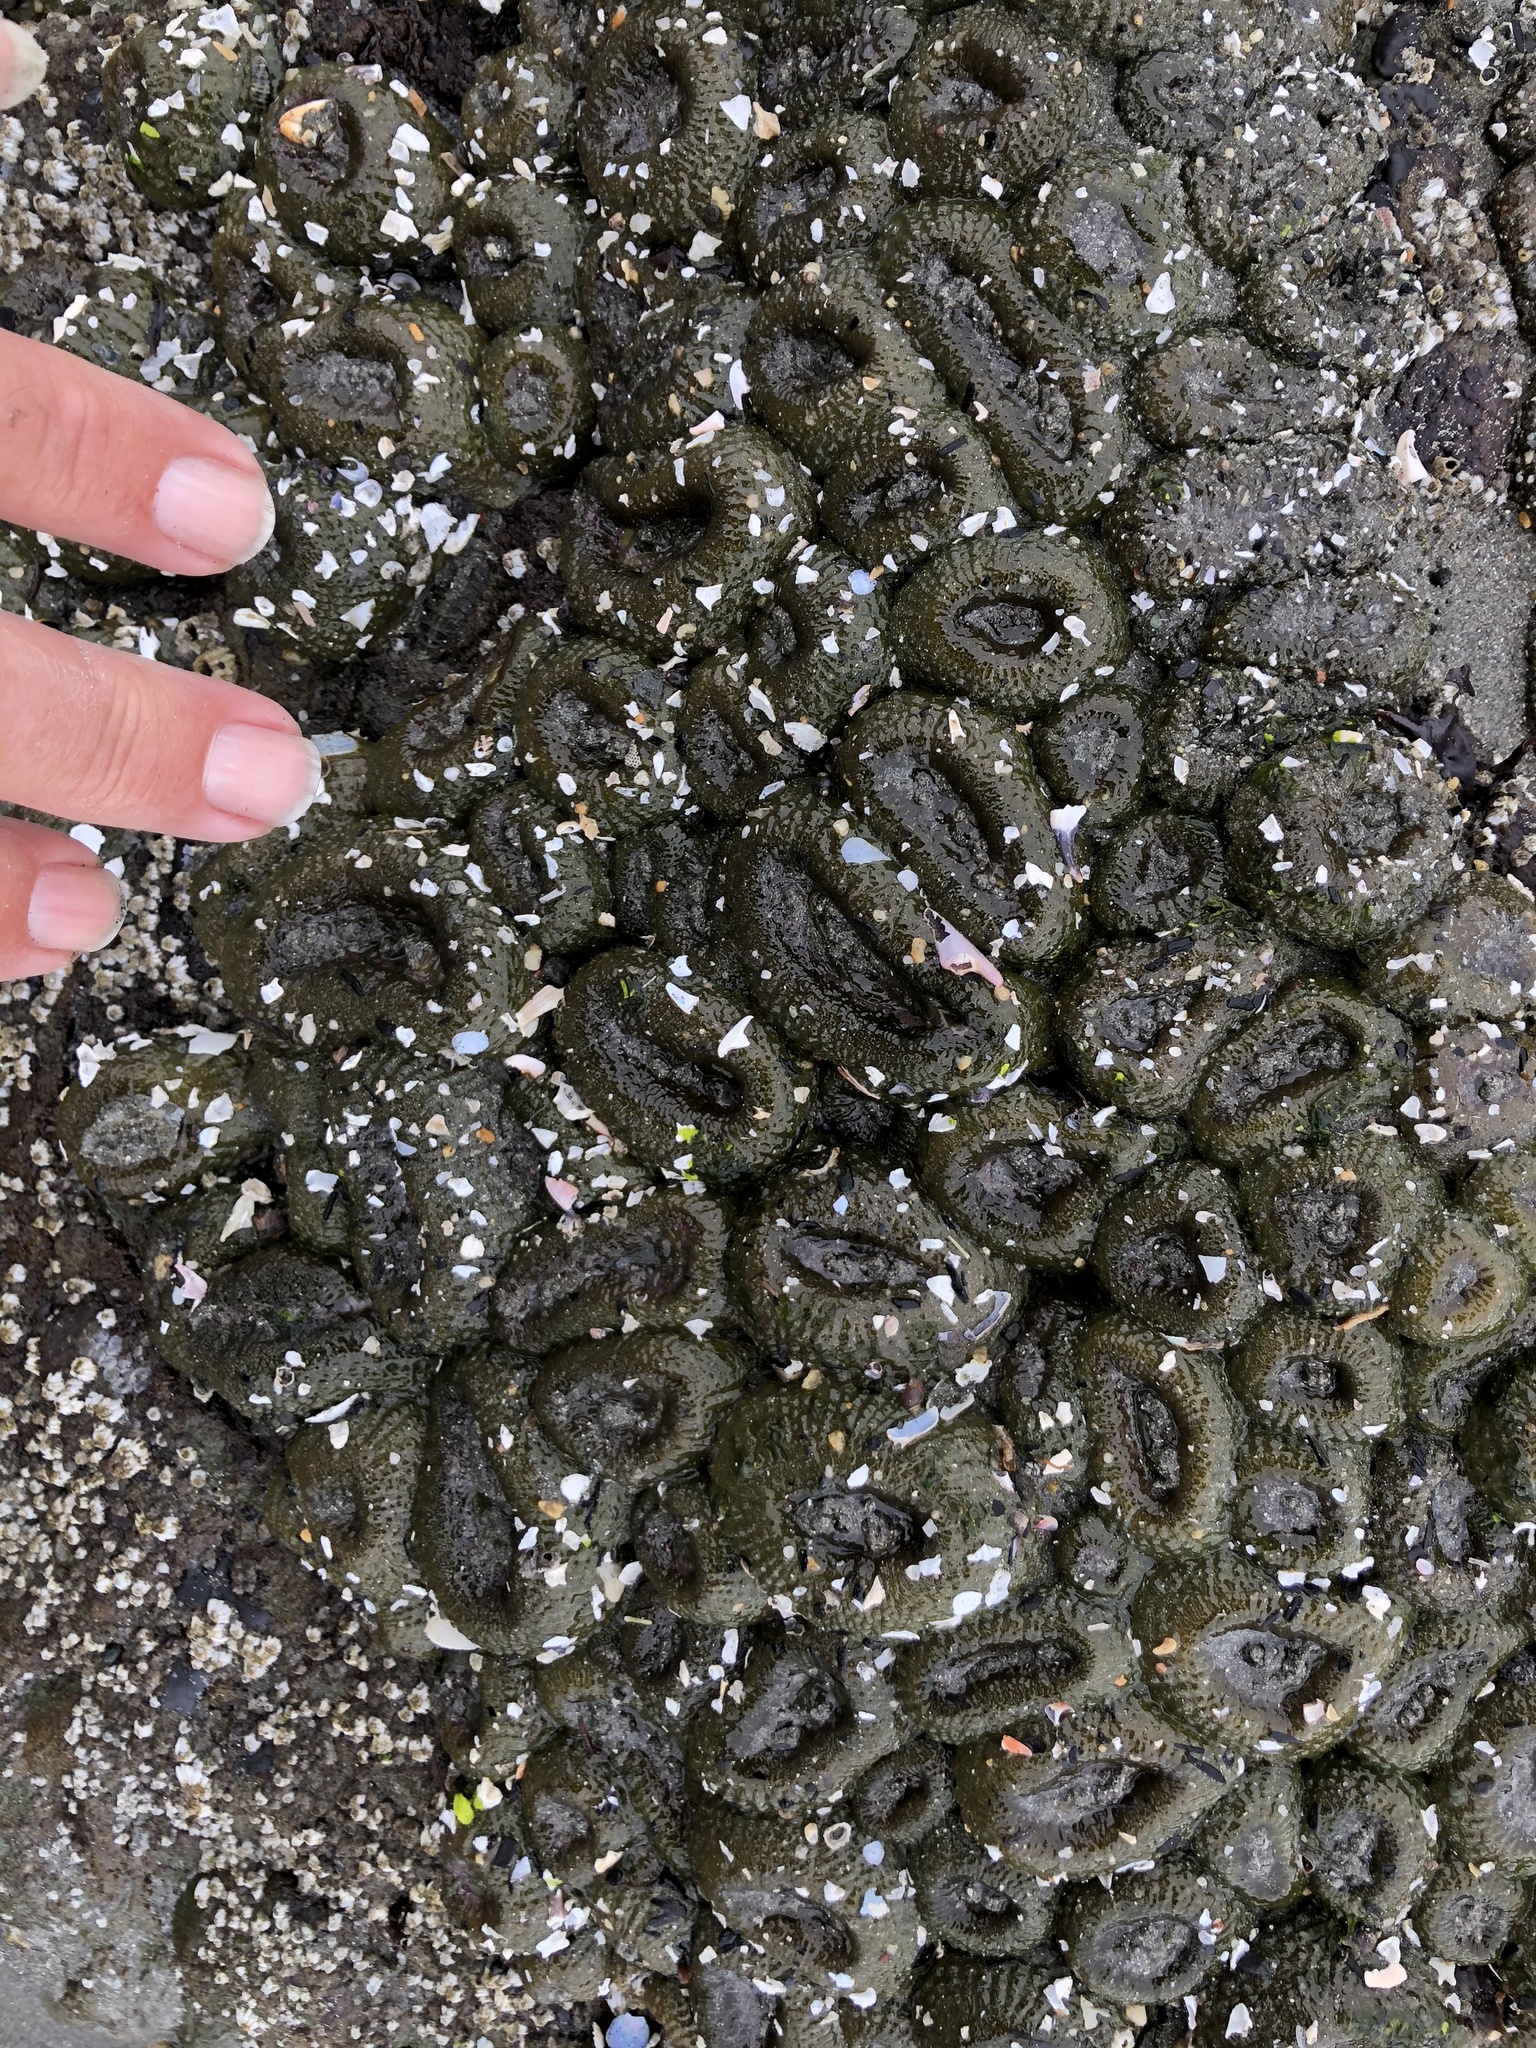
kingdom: Animalia
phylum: Cnidaria
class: Anthozoa
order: Actiniaria
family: Actiniidae
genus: Anthopleura
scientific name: Anthopleura elegantissima
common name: Clonal anemone
